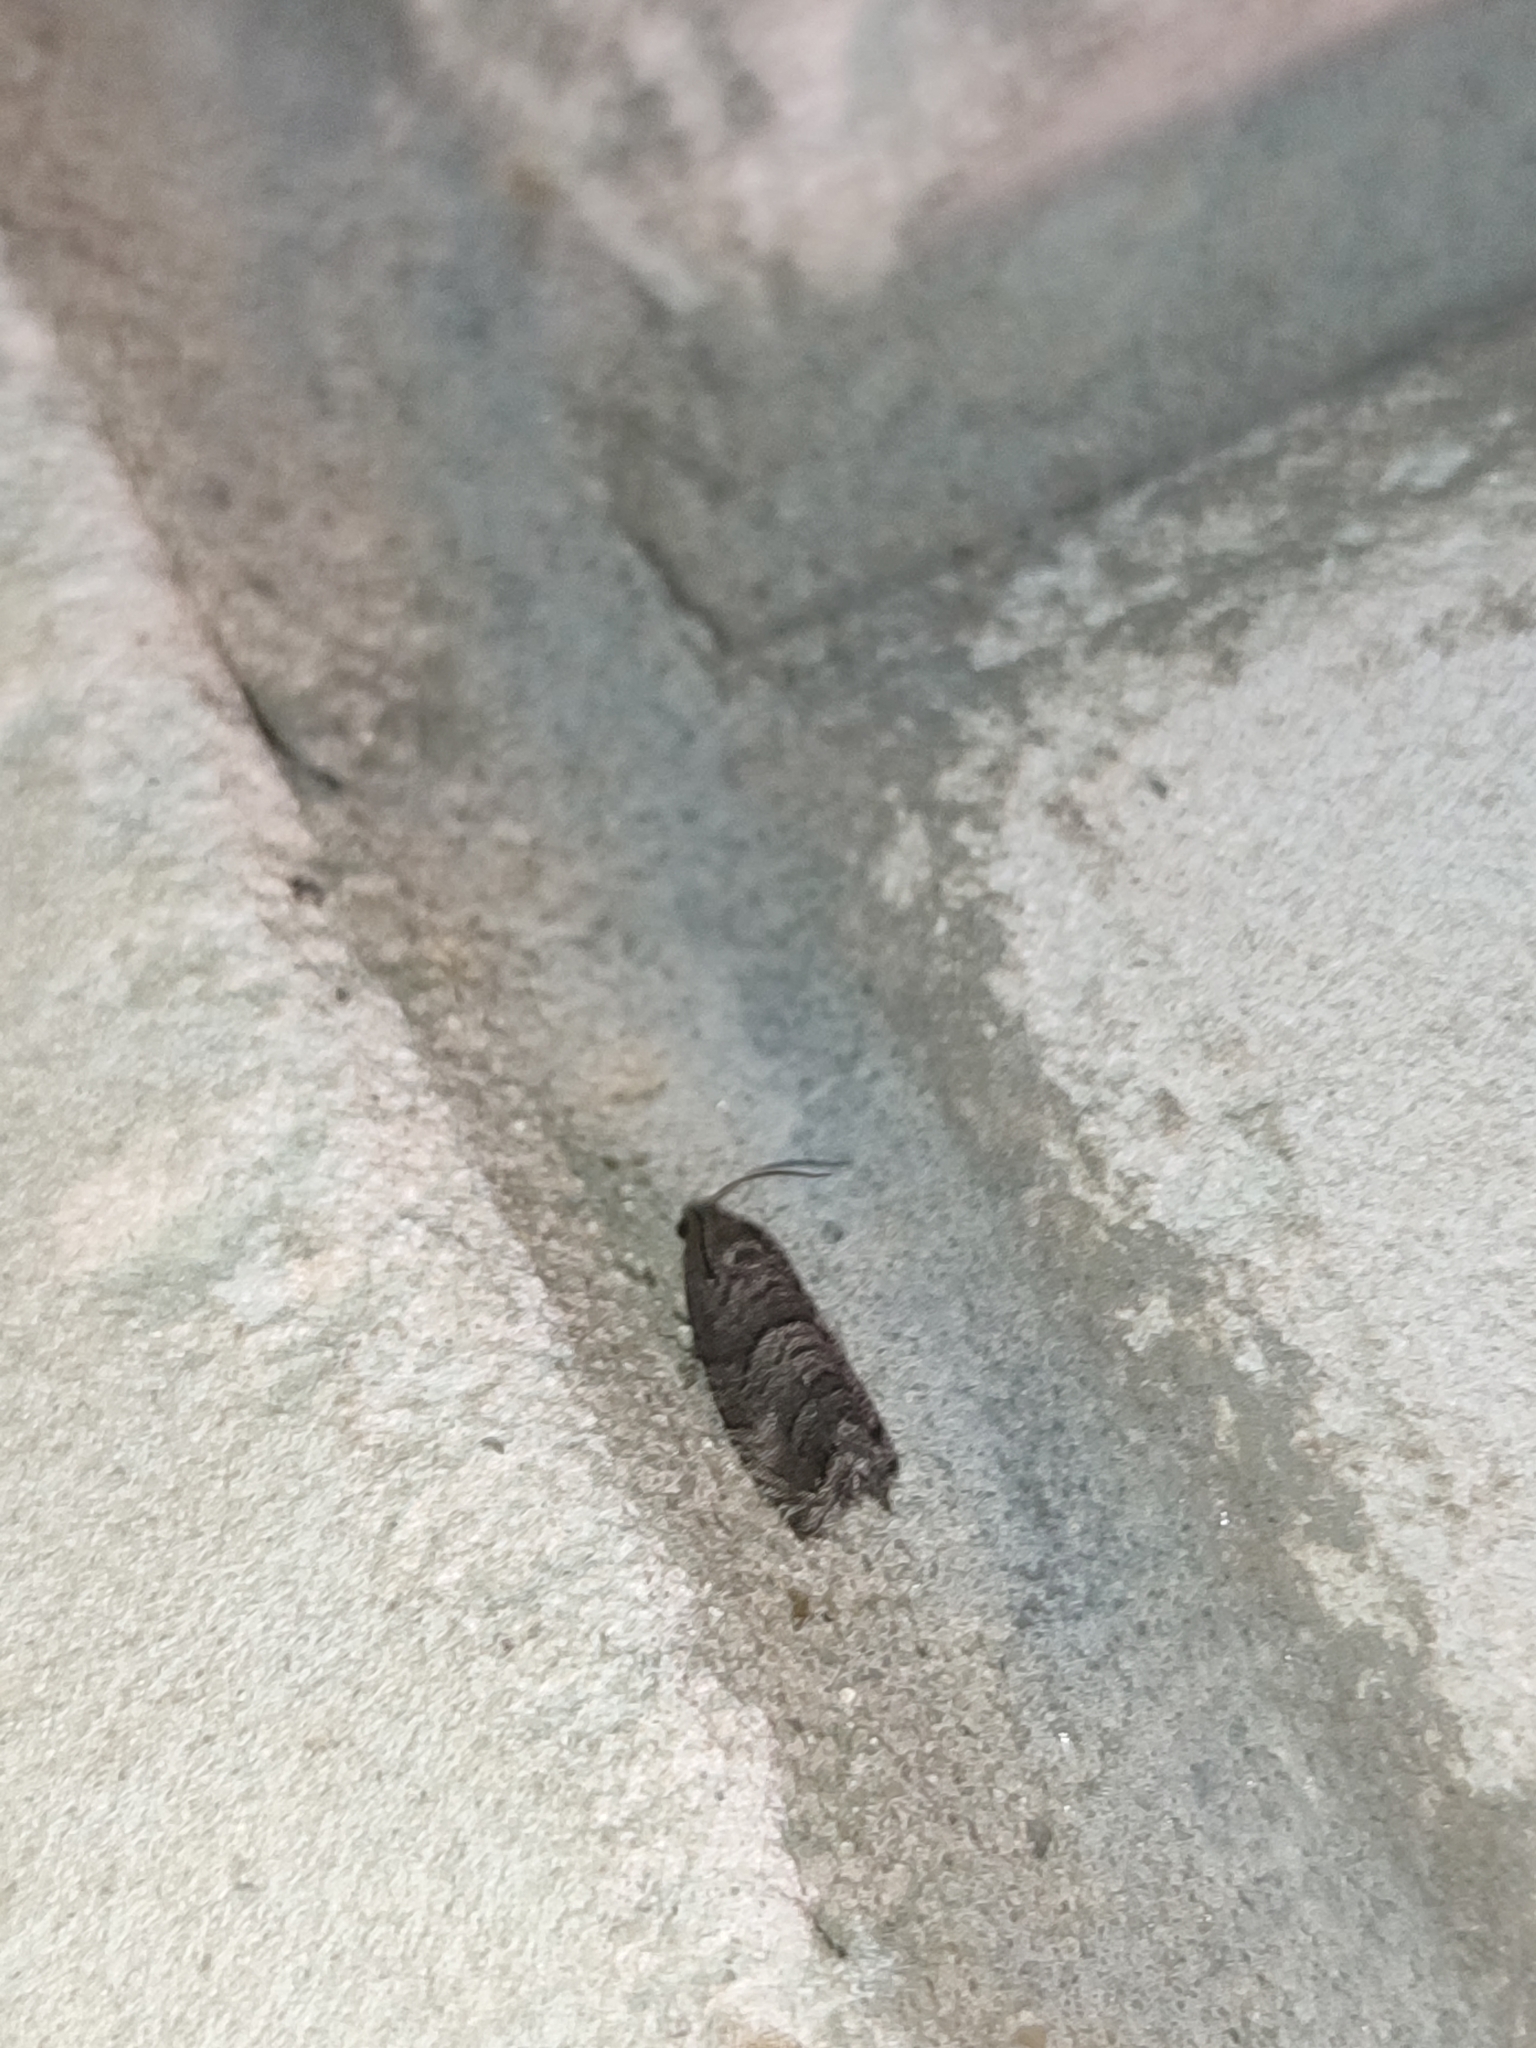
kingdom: Animalia
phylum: Arthropoda
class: Insecta
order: Lepidoptera
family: Tortricidae
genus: Cydia
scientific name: Cydia pyrivora
